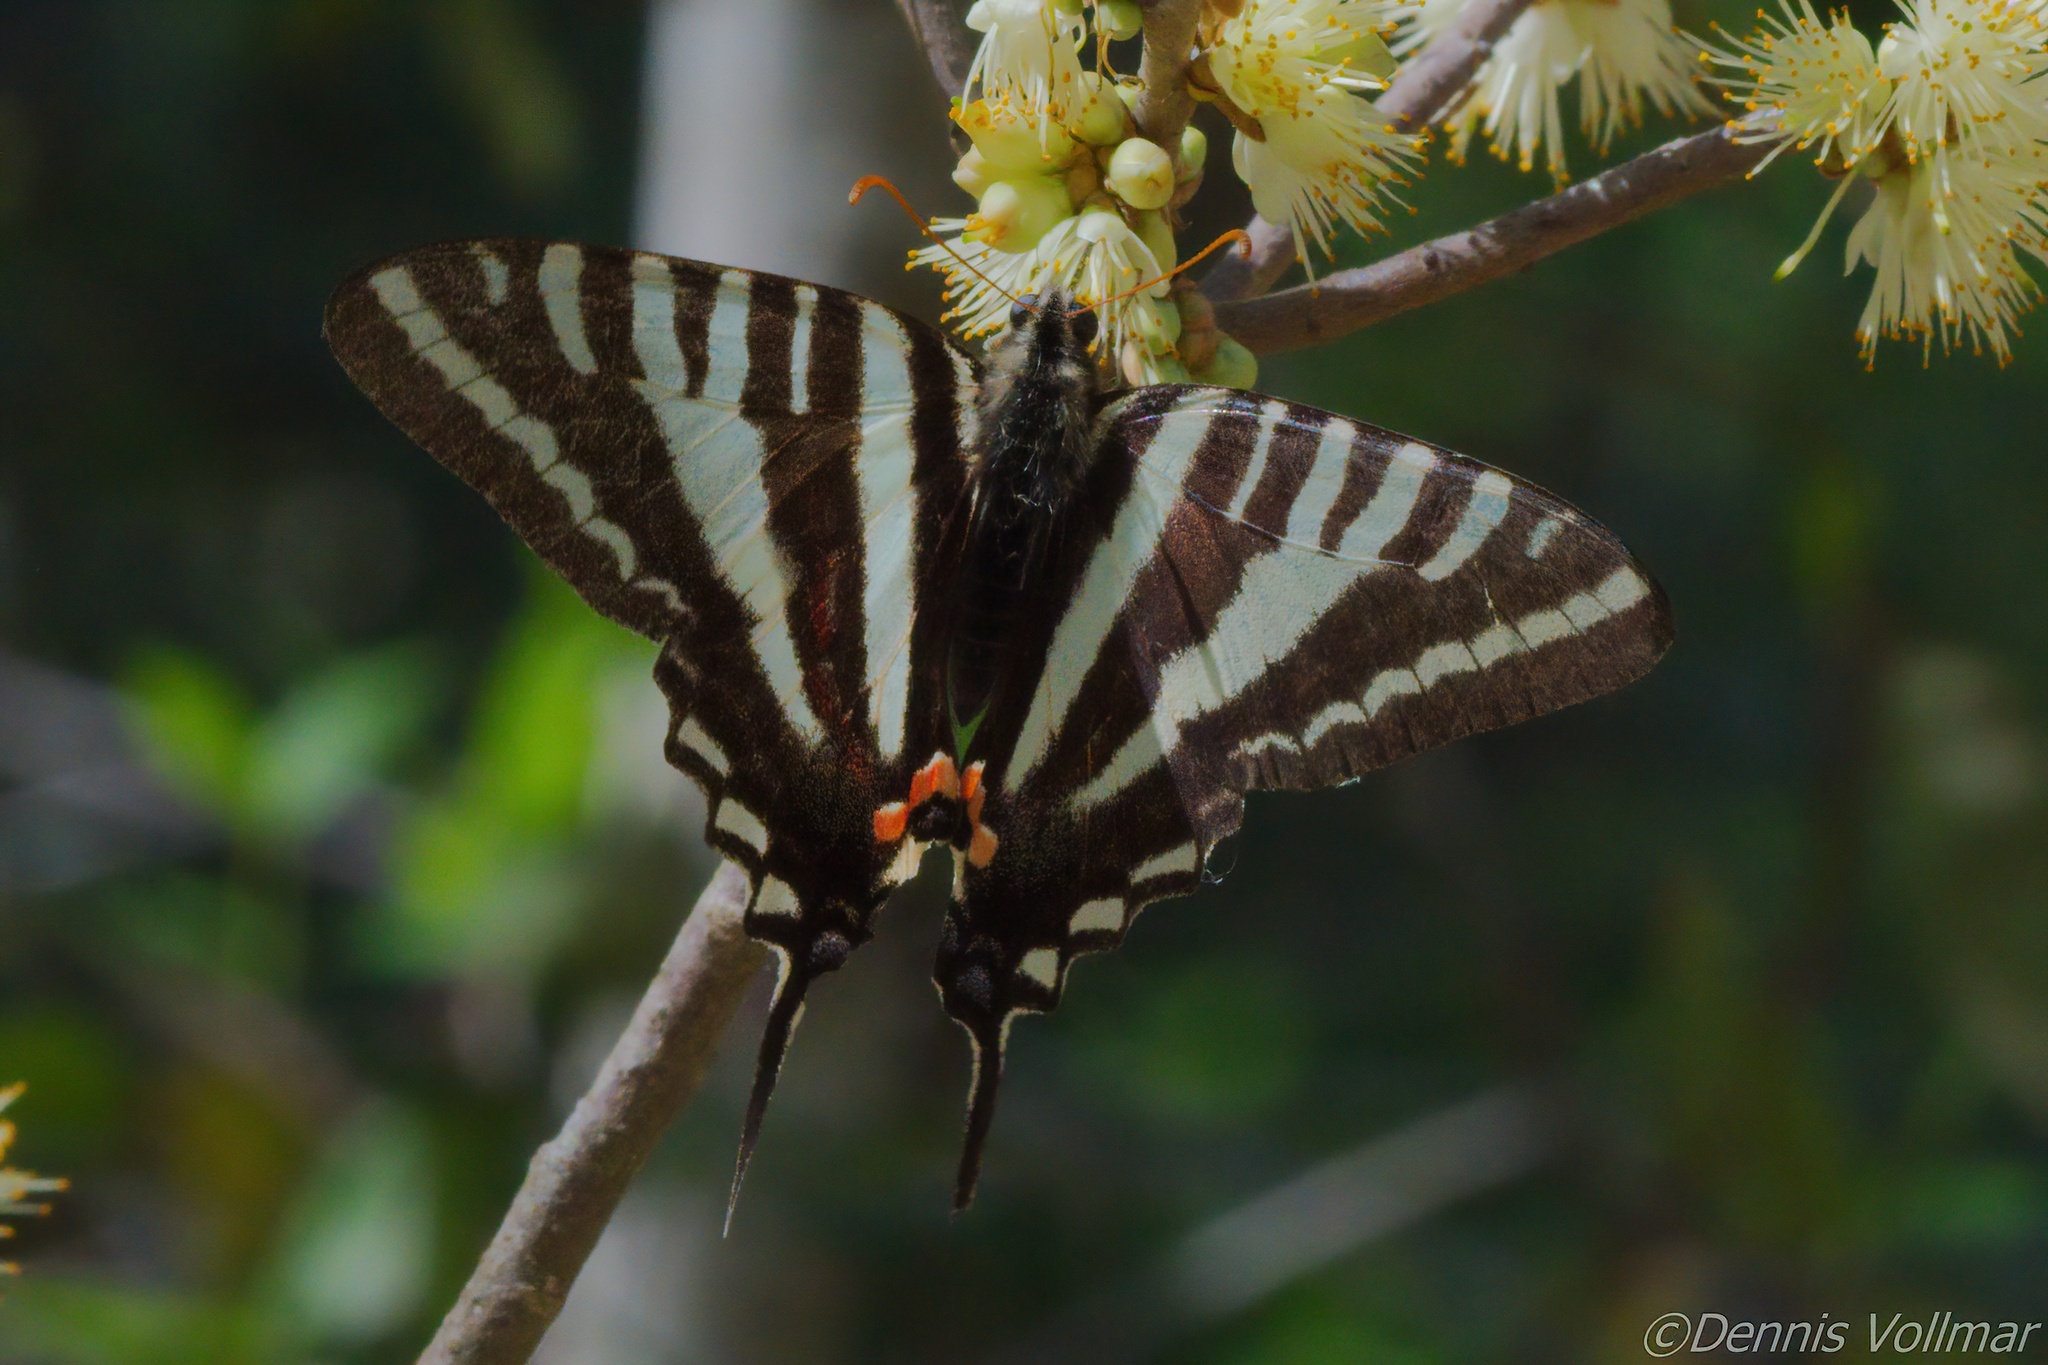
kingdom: Animalia
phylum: Arthropoda
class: Insecta
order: Lepidoptera
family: Papilionidae
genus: Protographium
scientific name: Protographium marcellus
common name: Zebra swallowtail
